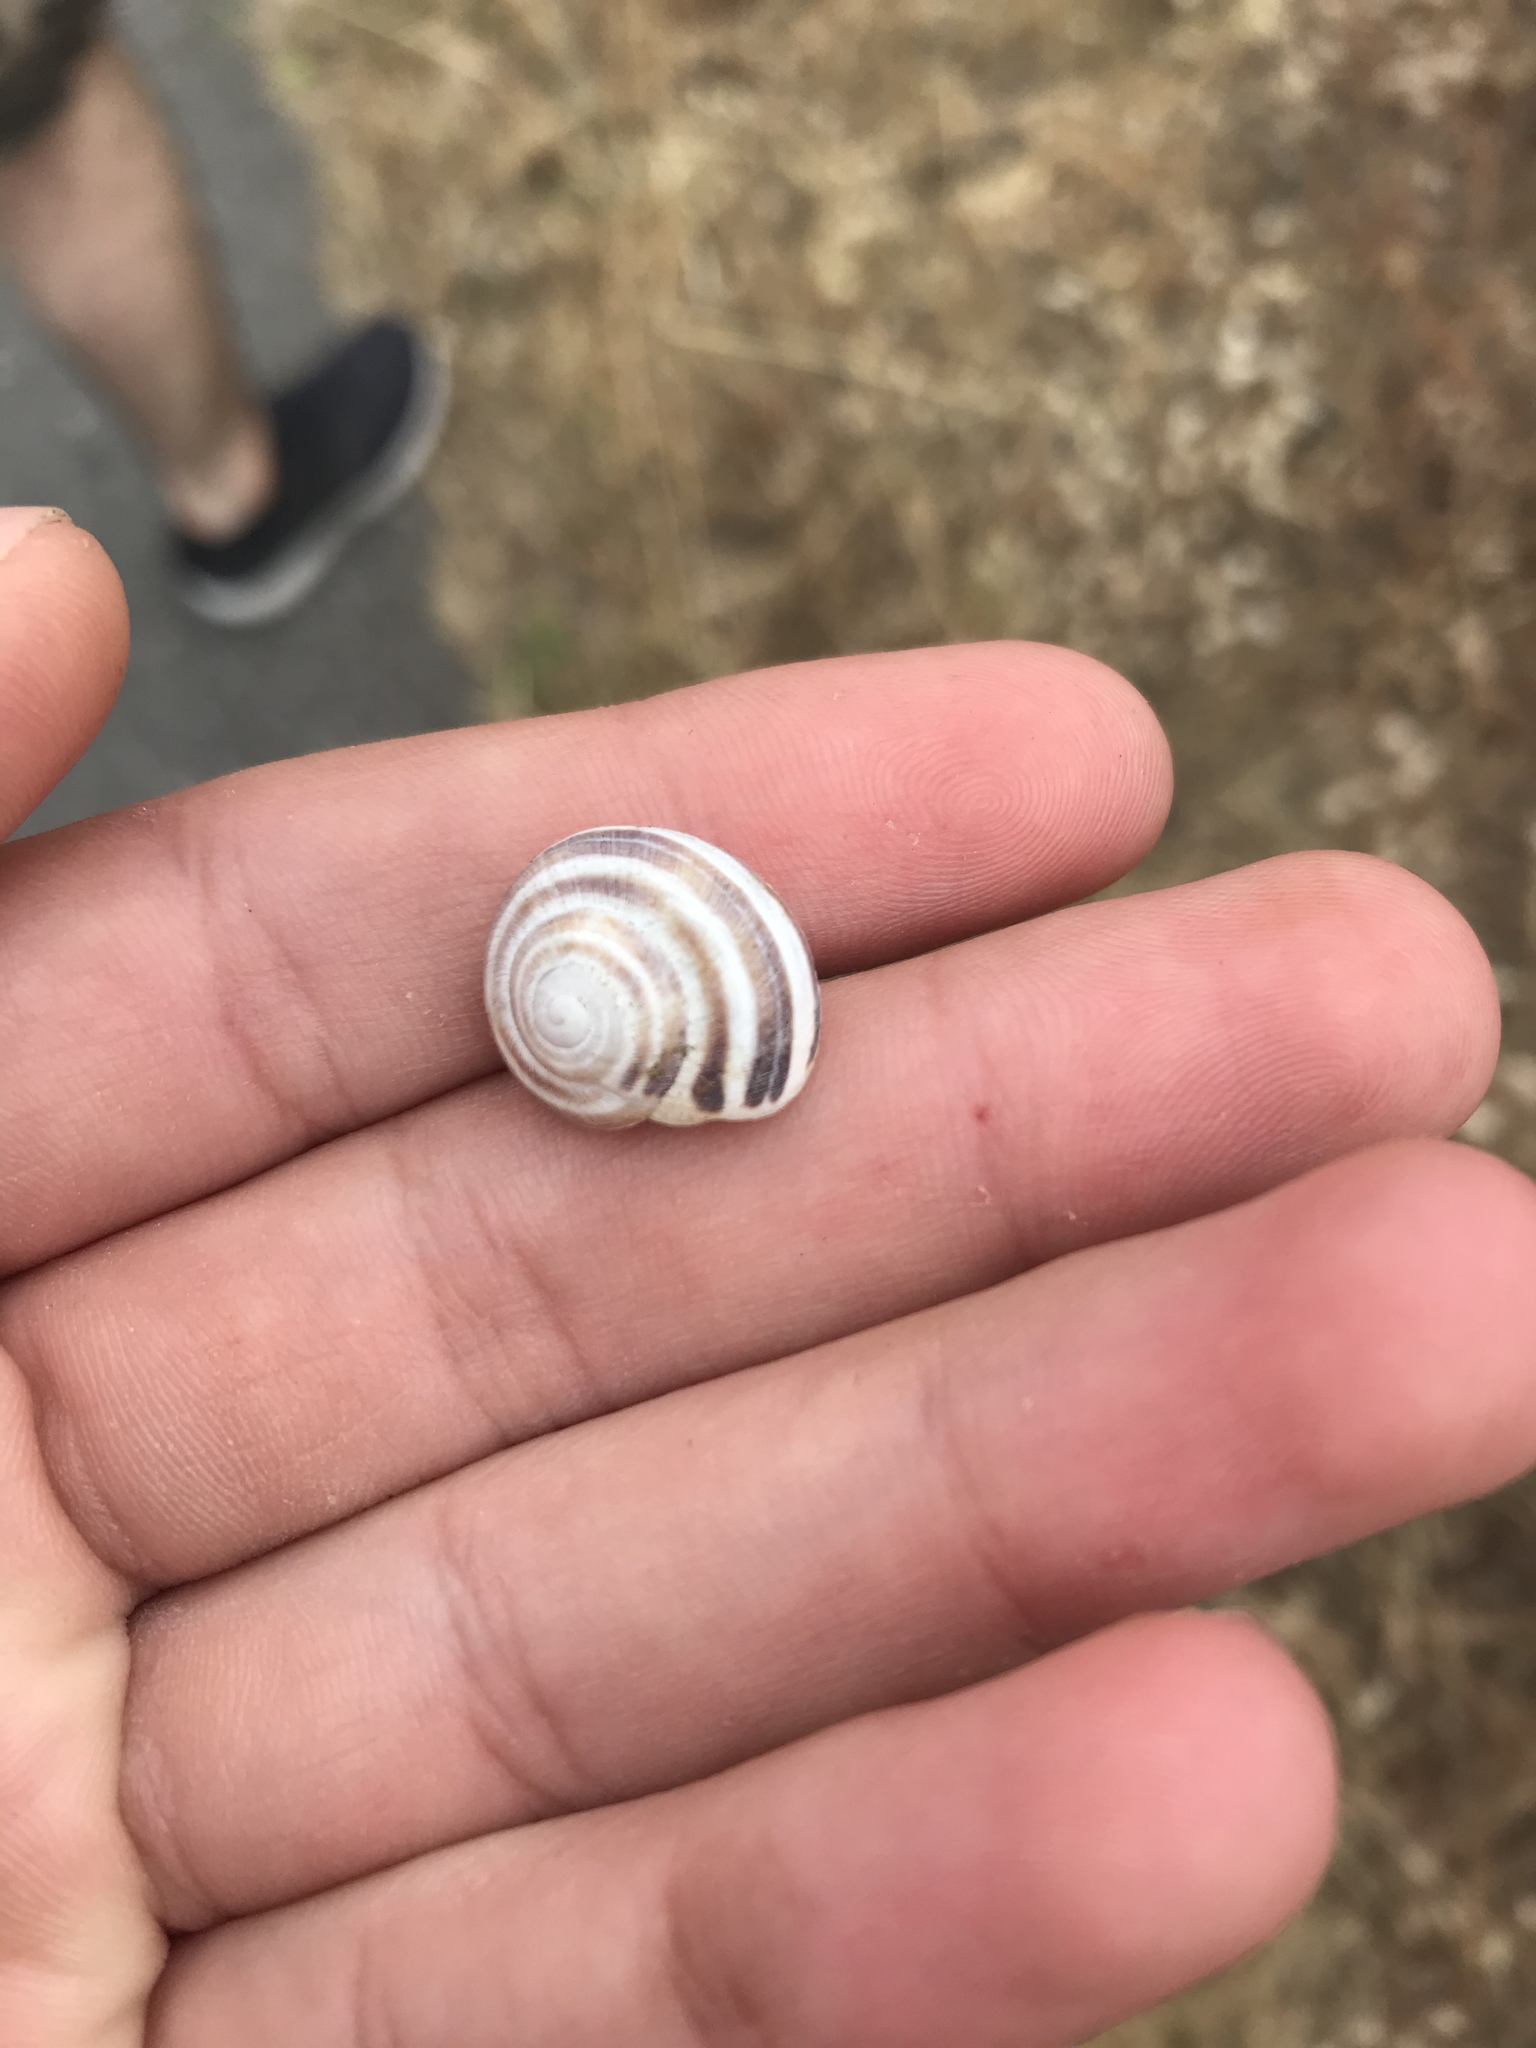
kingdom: Animalia
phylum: Mollusca
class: Gastropoda
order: Stylommatophora
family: Helicidae
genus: Otala
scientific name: Otala lactea
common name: Milk snail
